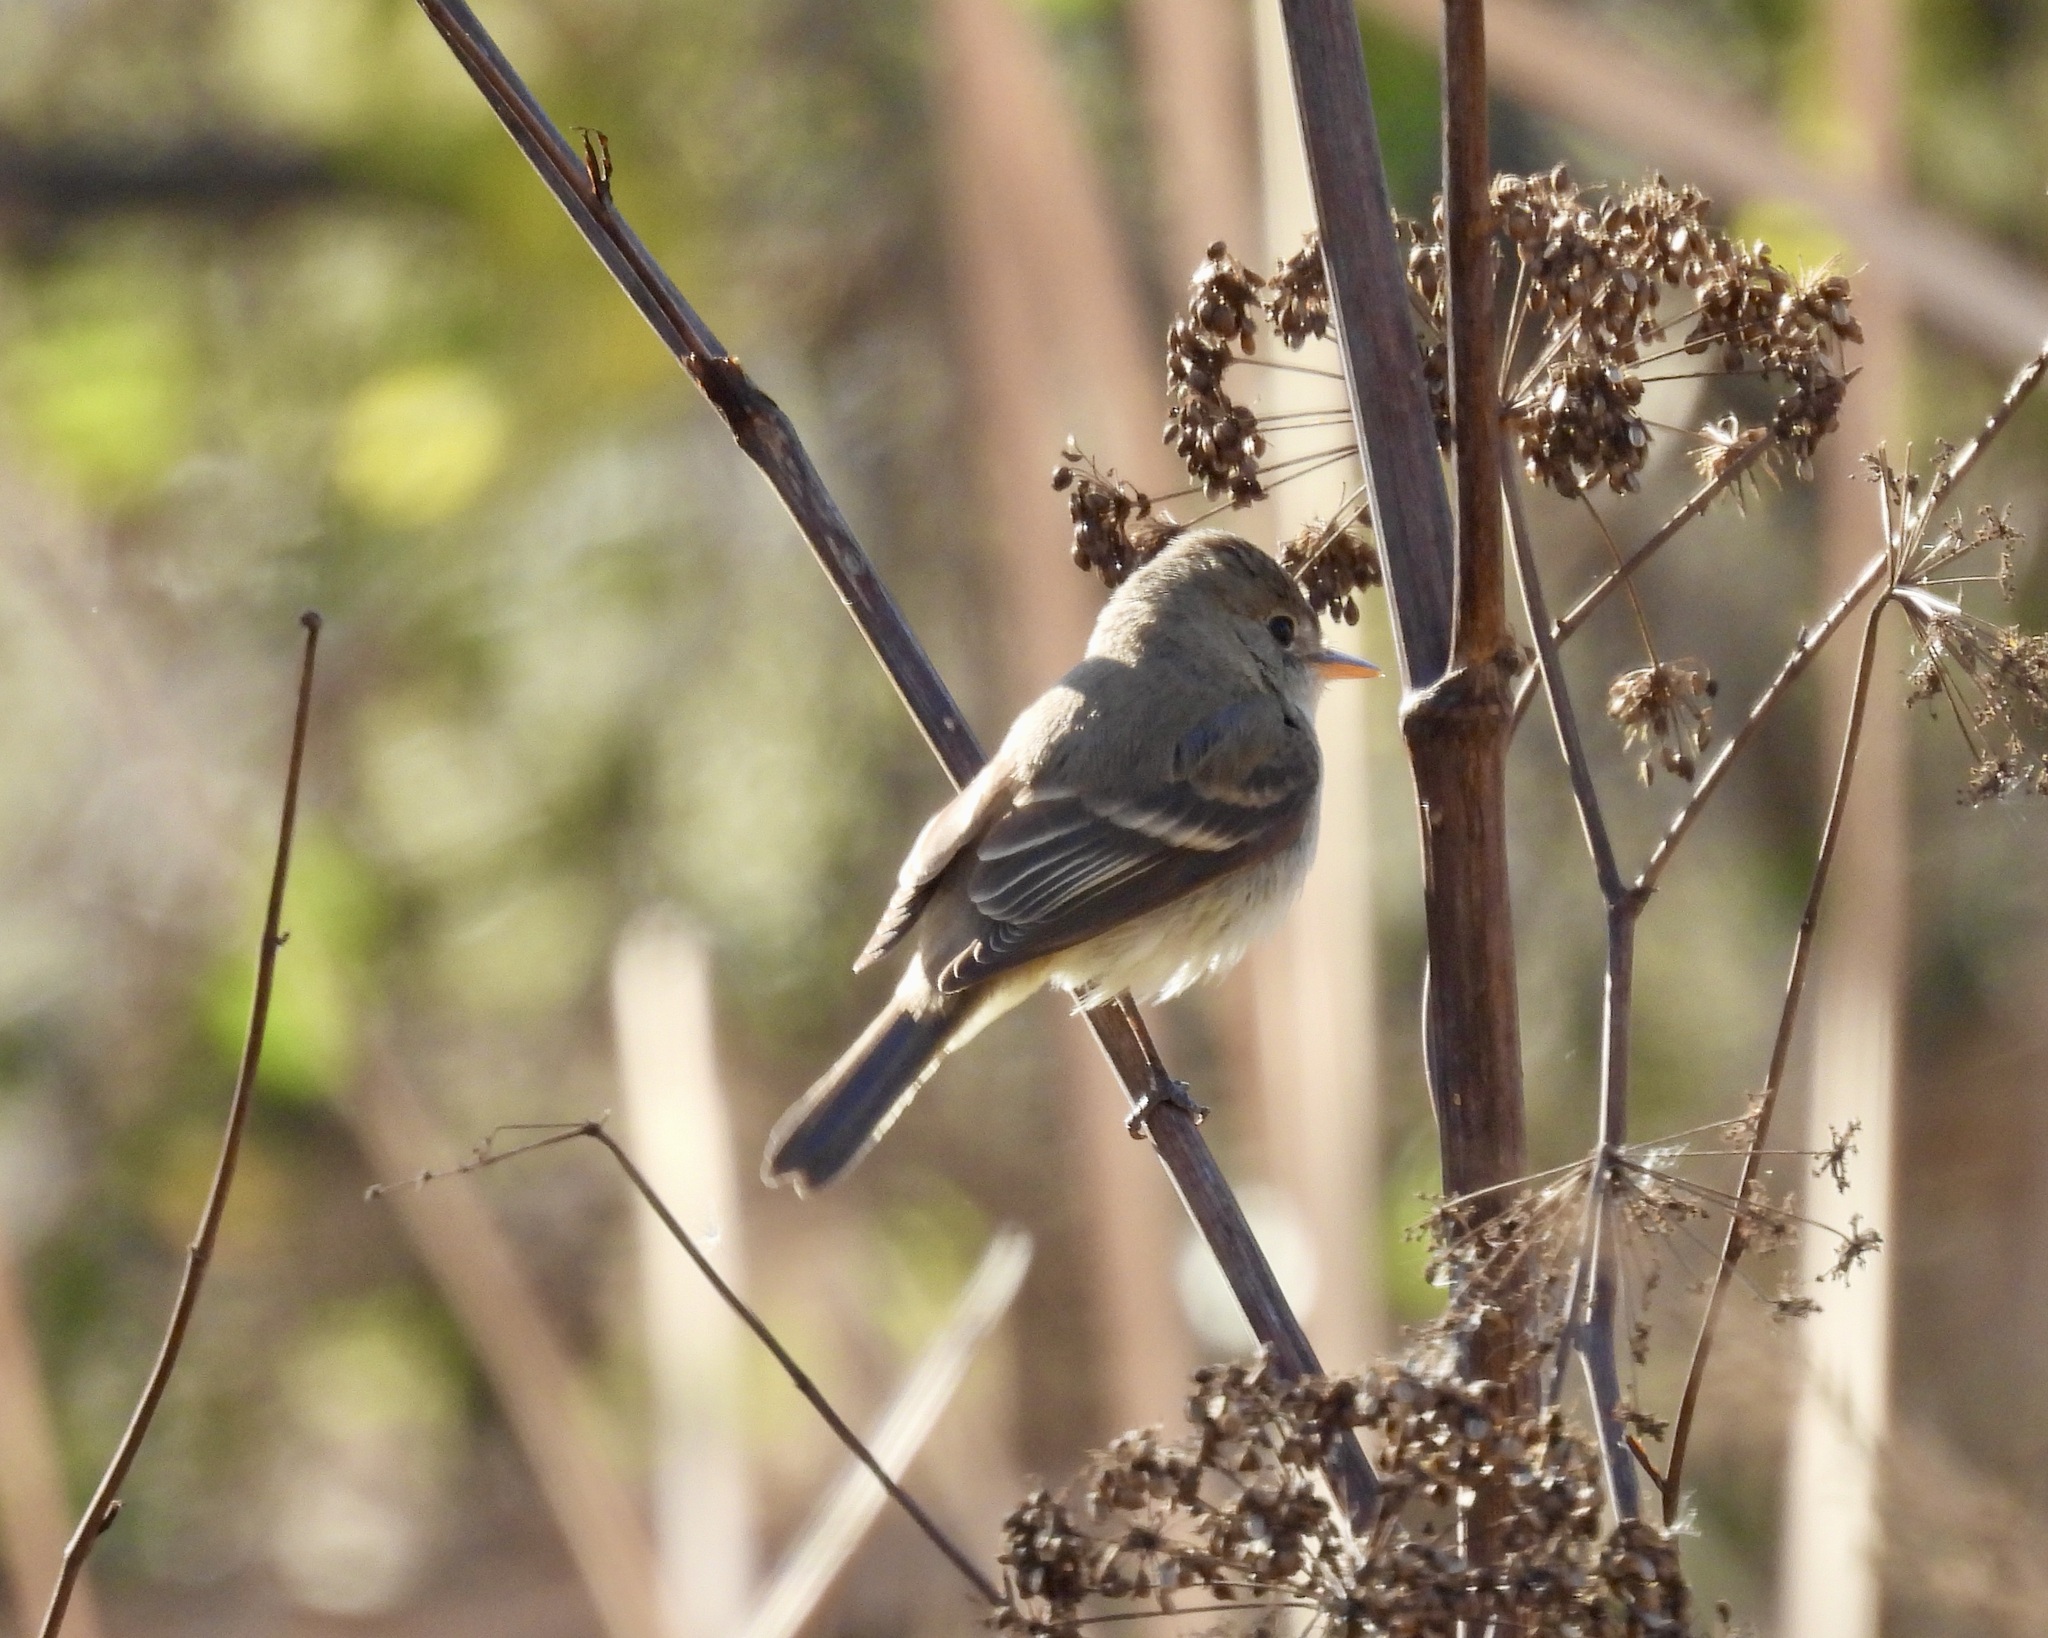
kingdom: Animalia
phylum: Chordata
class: Aves
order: Passeriformes
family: Tyrannidae
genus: Empidonax
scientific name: Empidonax traillii
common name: Willow flycatcher
